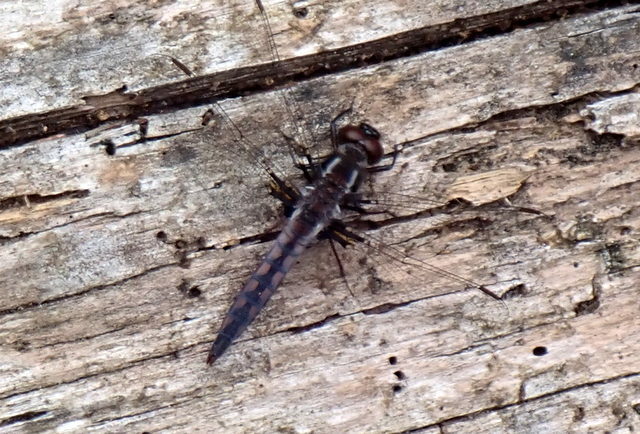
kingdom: Animalia
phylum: Arthropoda
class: Insecta
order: Odonata
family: Libellulidae
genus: Ladona
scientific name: Ladona deplanata
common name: Blue corporal
